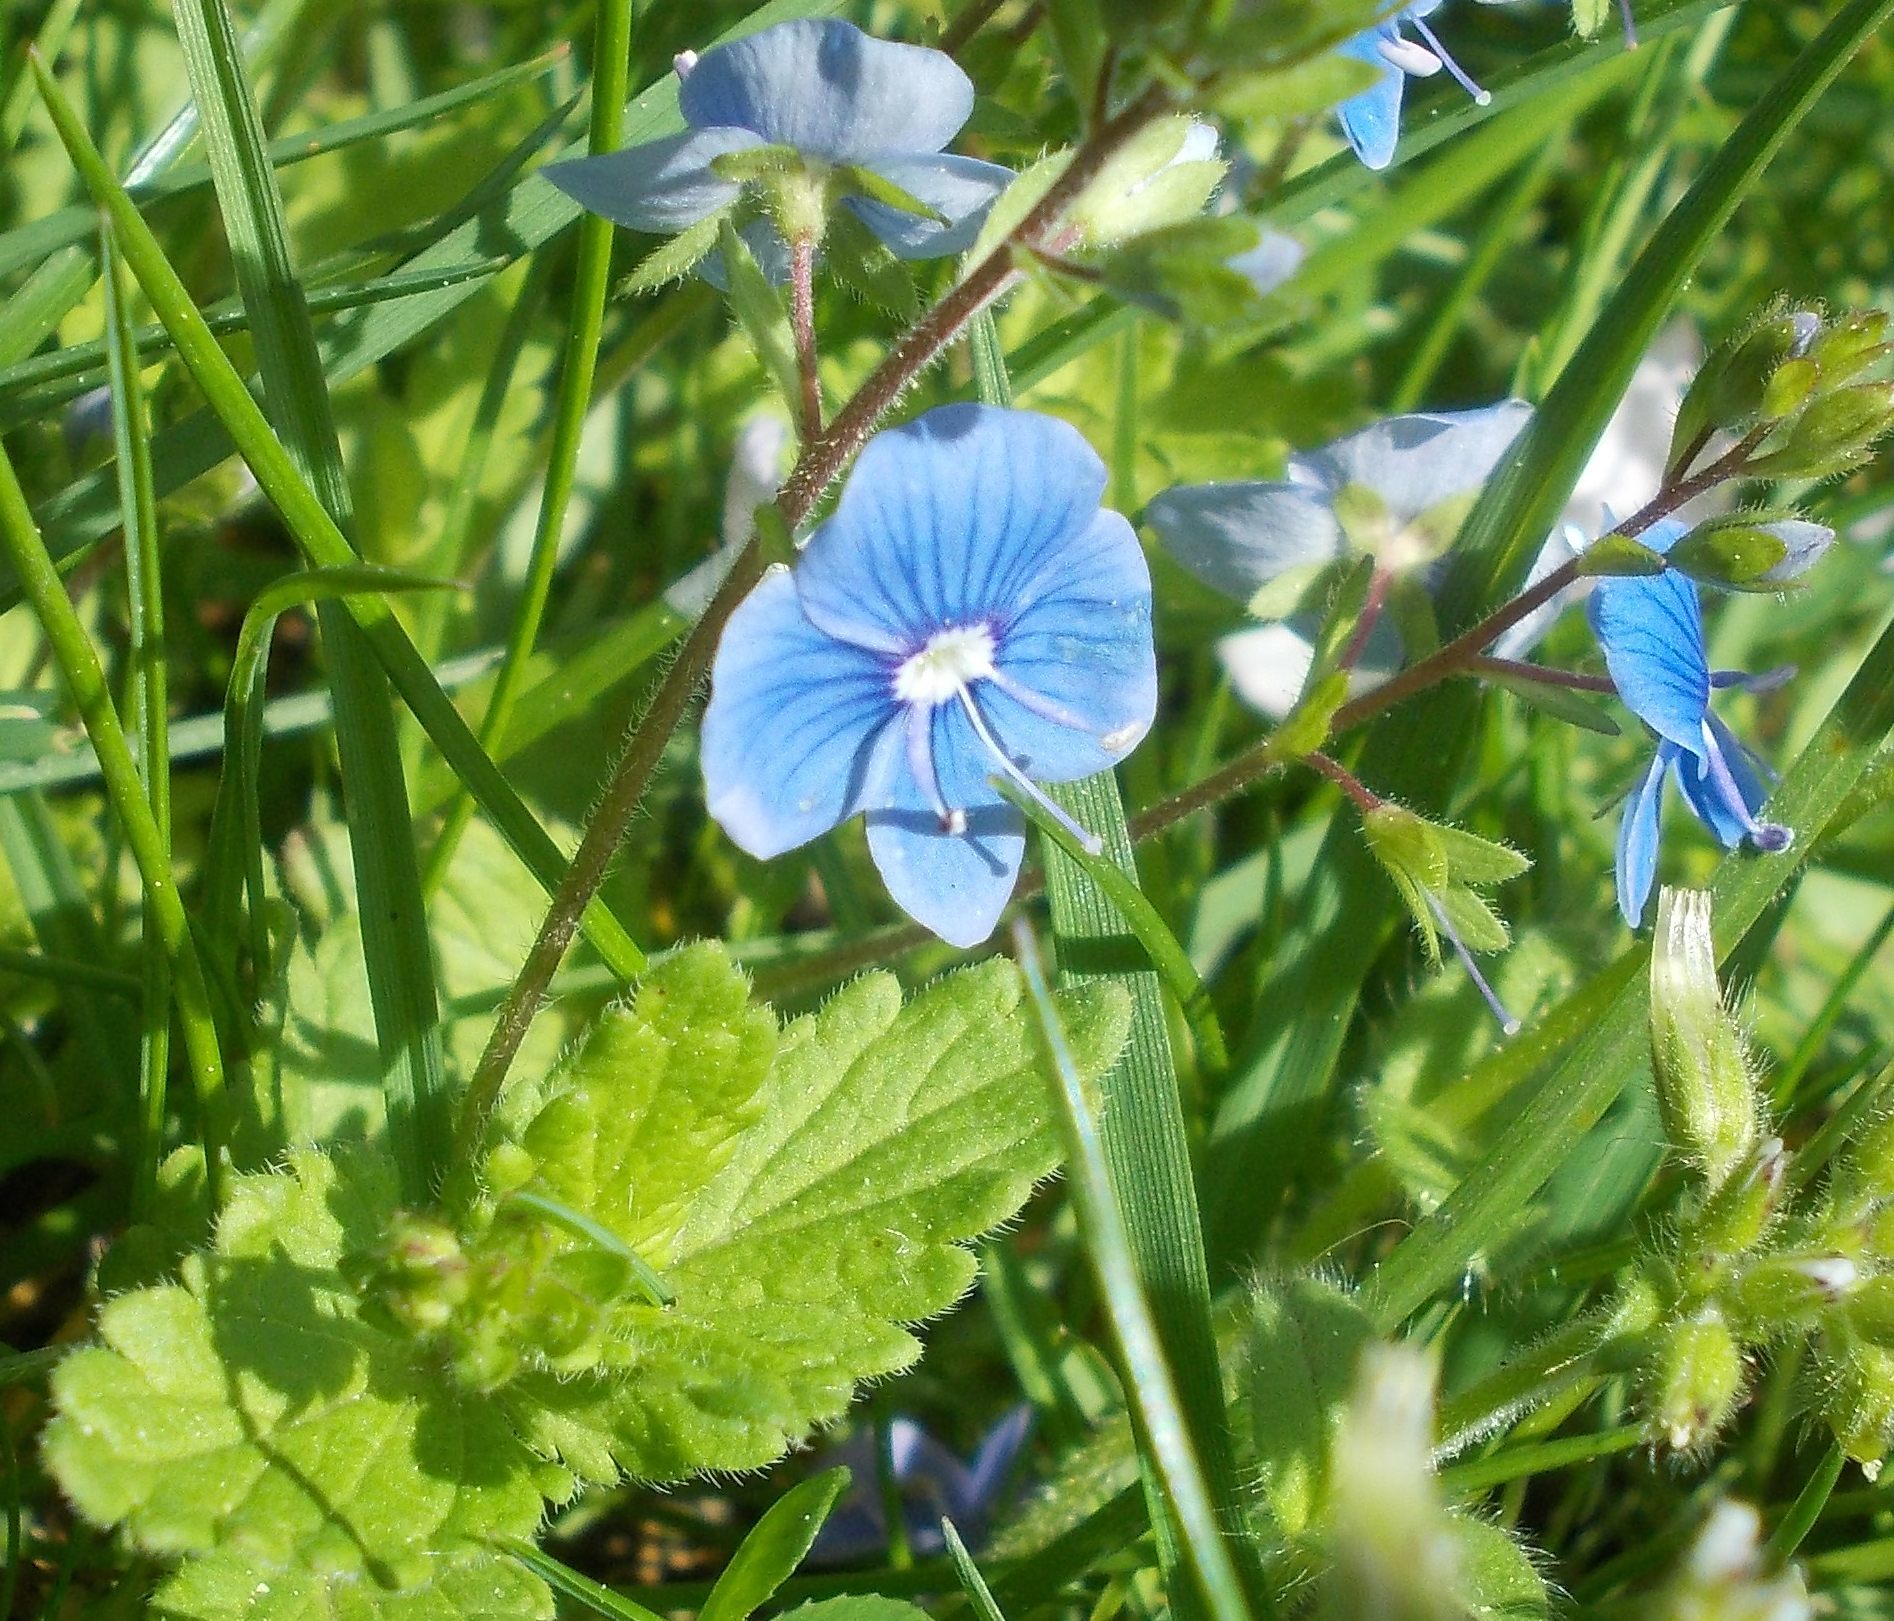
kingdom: Plantae
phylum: Tracheophyta
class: Magnoliopsida
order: Lamiales
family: Plantaginaceae
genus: Veronica
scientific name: Veronica chamaedrys
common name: Germander speedwell
